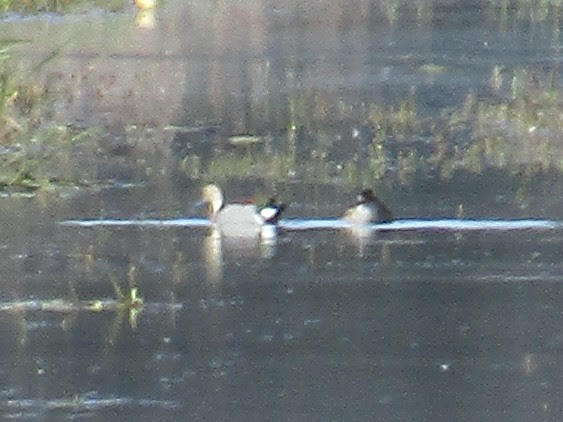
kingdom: Animalia
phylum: Chordata
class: Aves
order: Anseriformes
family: Anatidae
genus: Callonetta
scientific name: Callonetta leucophrys
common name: Ringed teal
